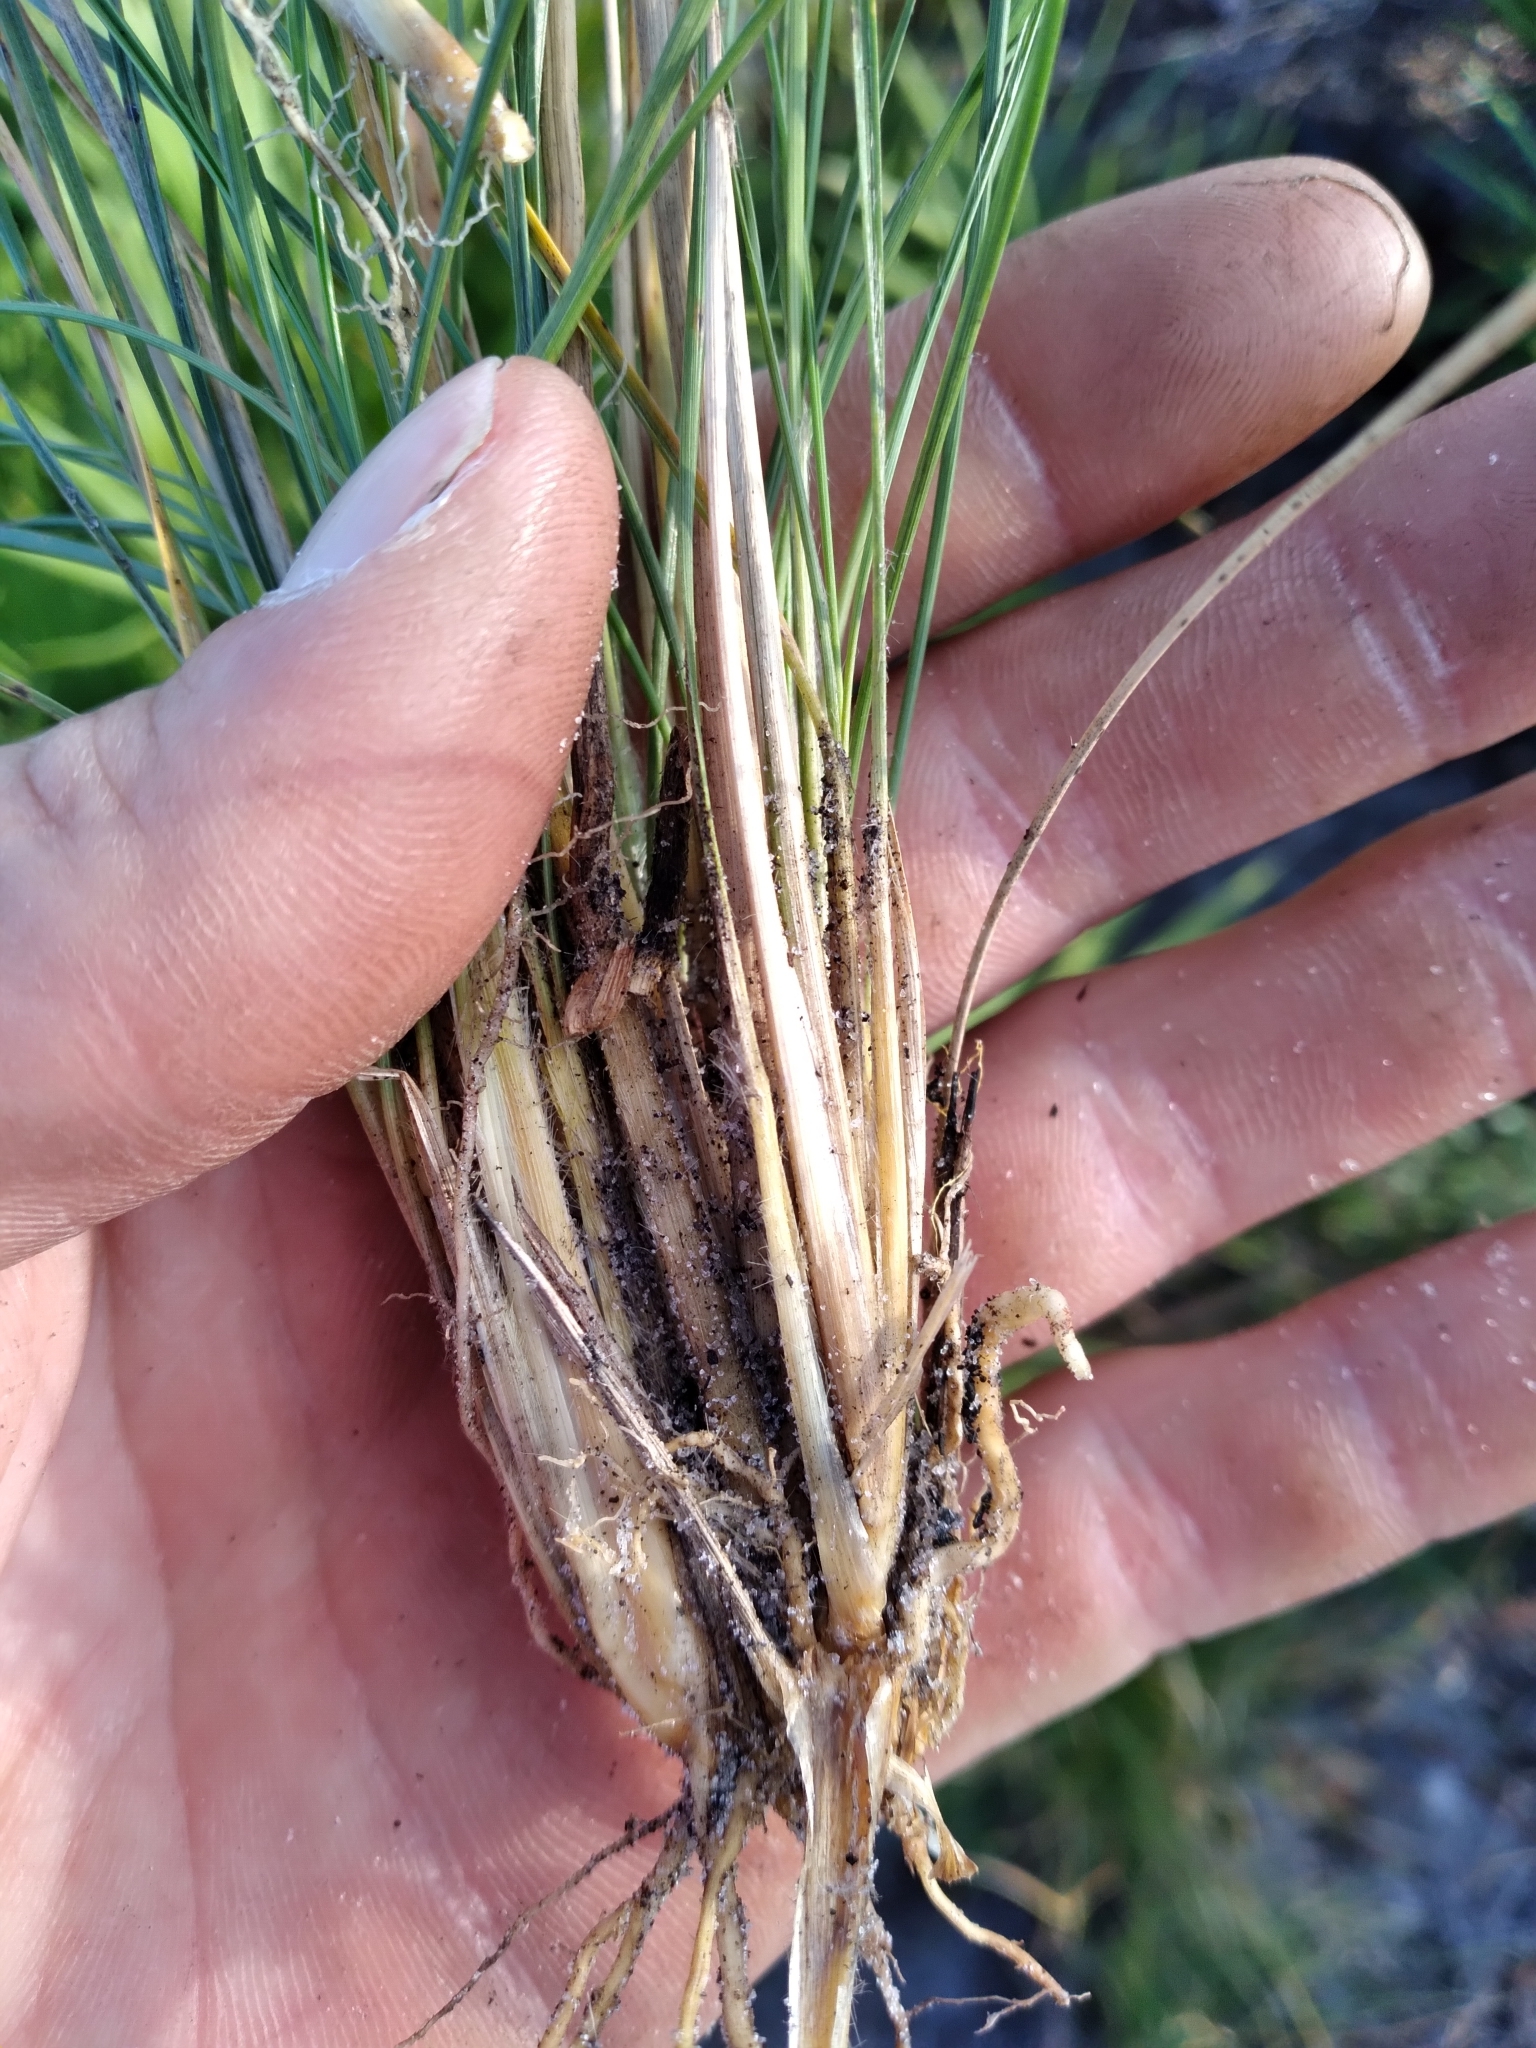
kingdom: Plantae
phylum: Tracheophyta
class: Liliopsida
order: Poales
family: Poaceae
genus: Sporobolus
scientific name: Sporobolus curtissii
